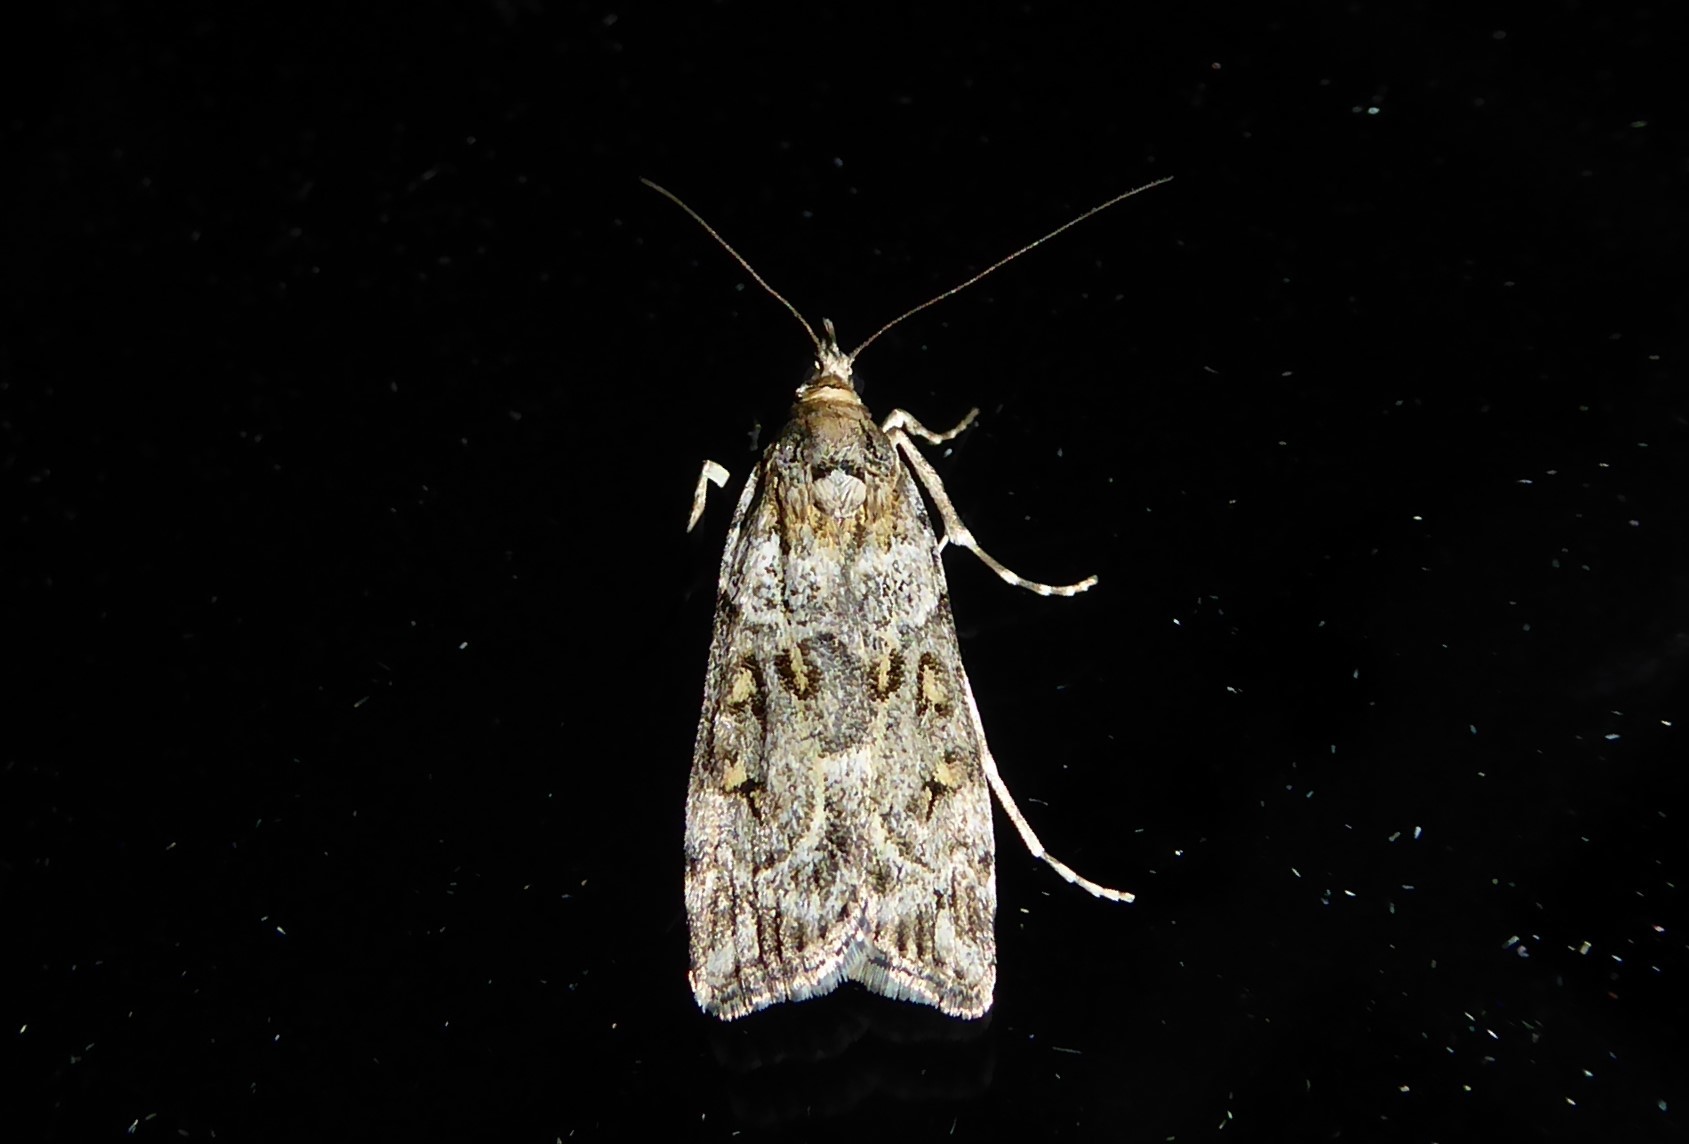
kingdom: Animalia
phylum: Arthropoda
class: Insecta
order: Lepidoptera
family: Crambidae
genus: Eudonia
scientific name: Eudonia diphtheralis
